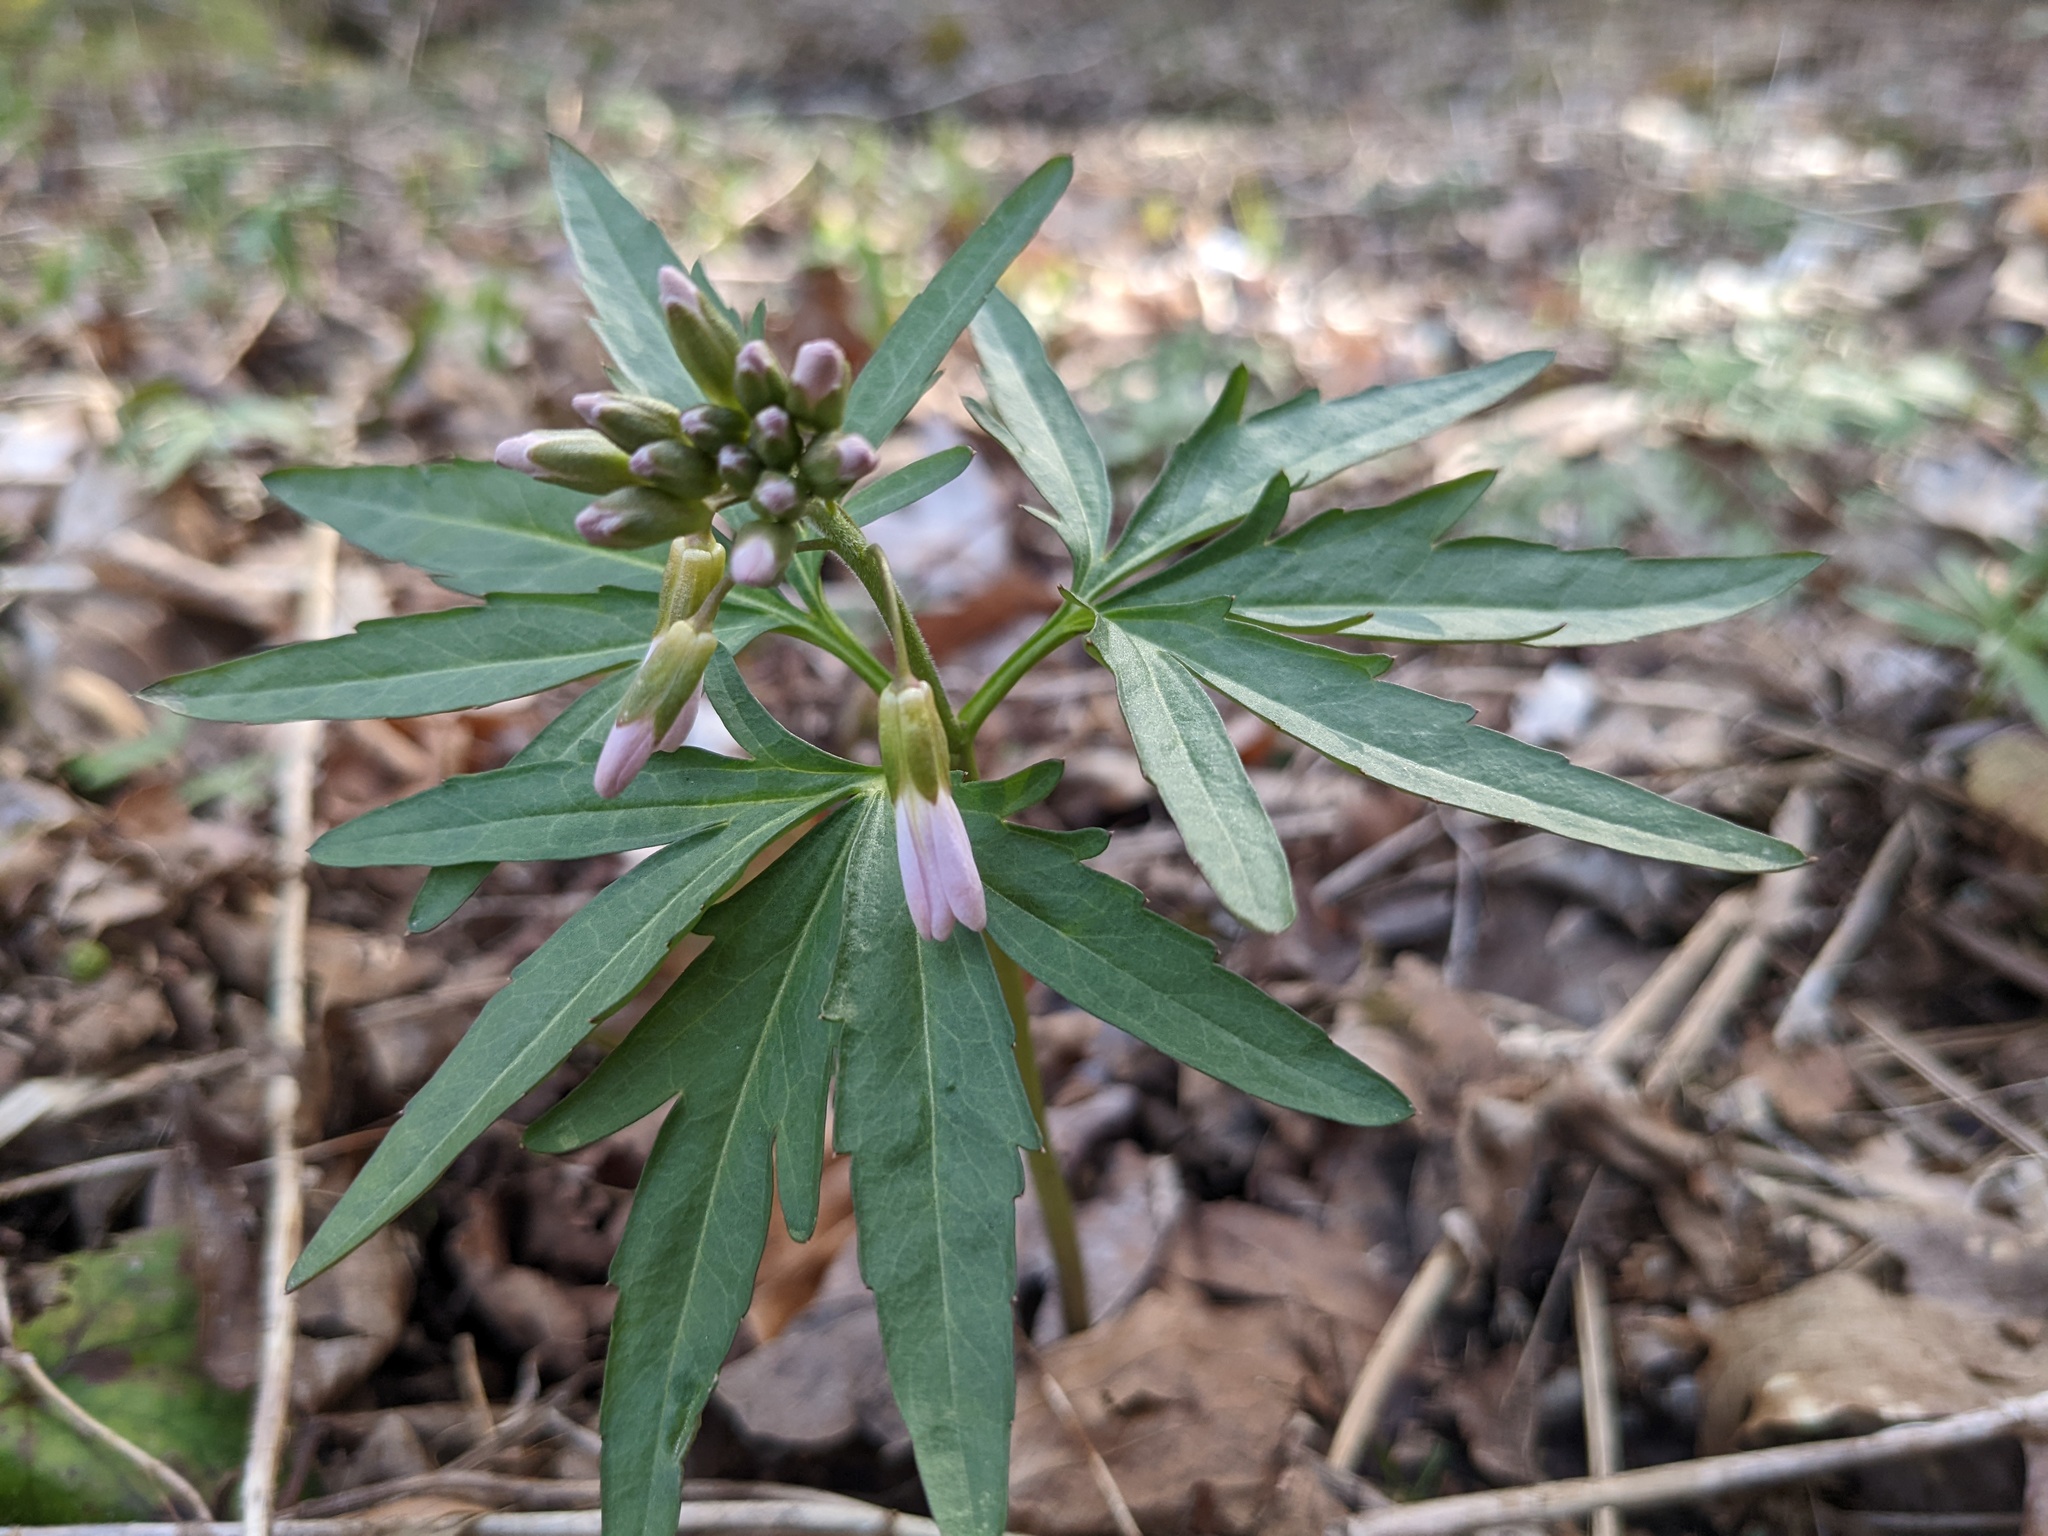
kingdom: Plantae
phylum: Tracheophyta
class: Magnoliopsida
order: Brassicales
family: Brassicaceae
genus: Cardamine
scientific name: Cardamine concatenata
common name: Cut-leaf toothcup
